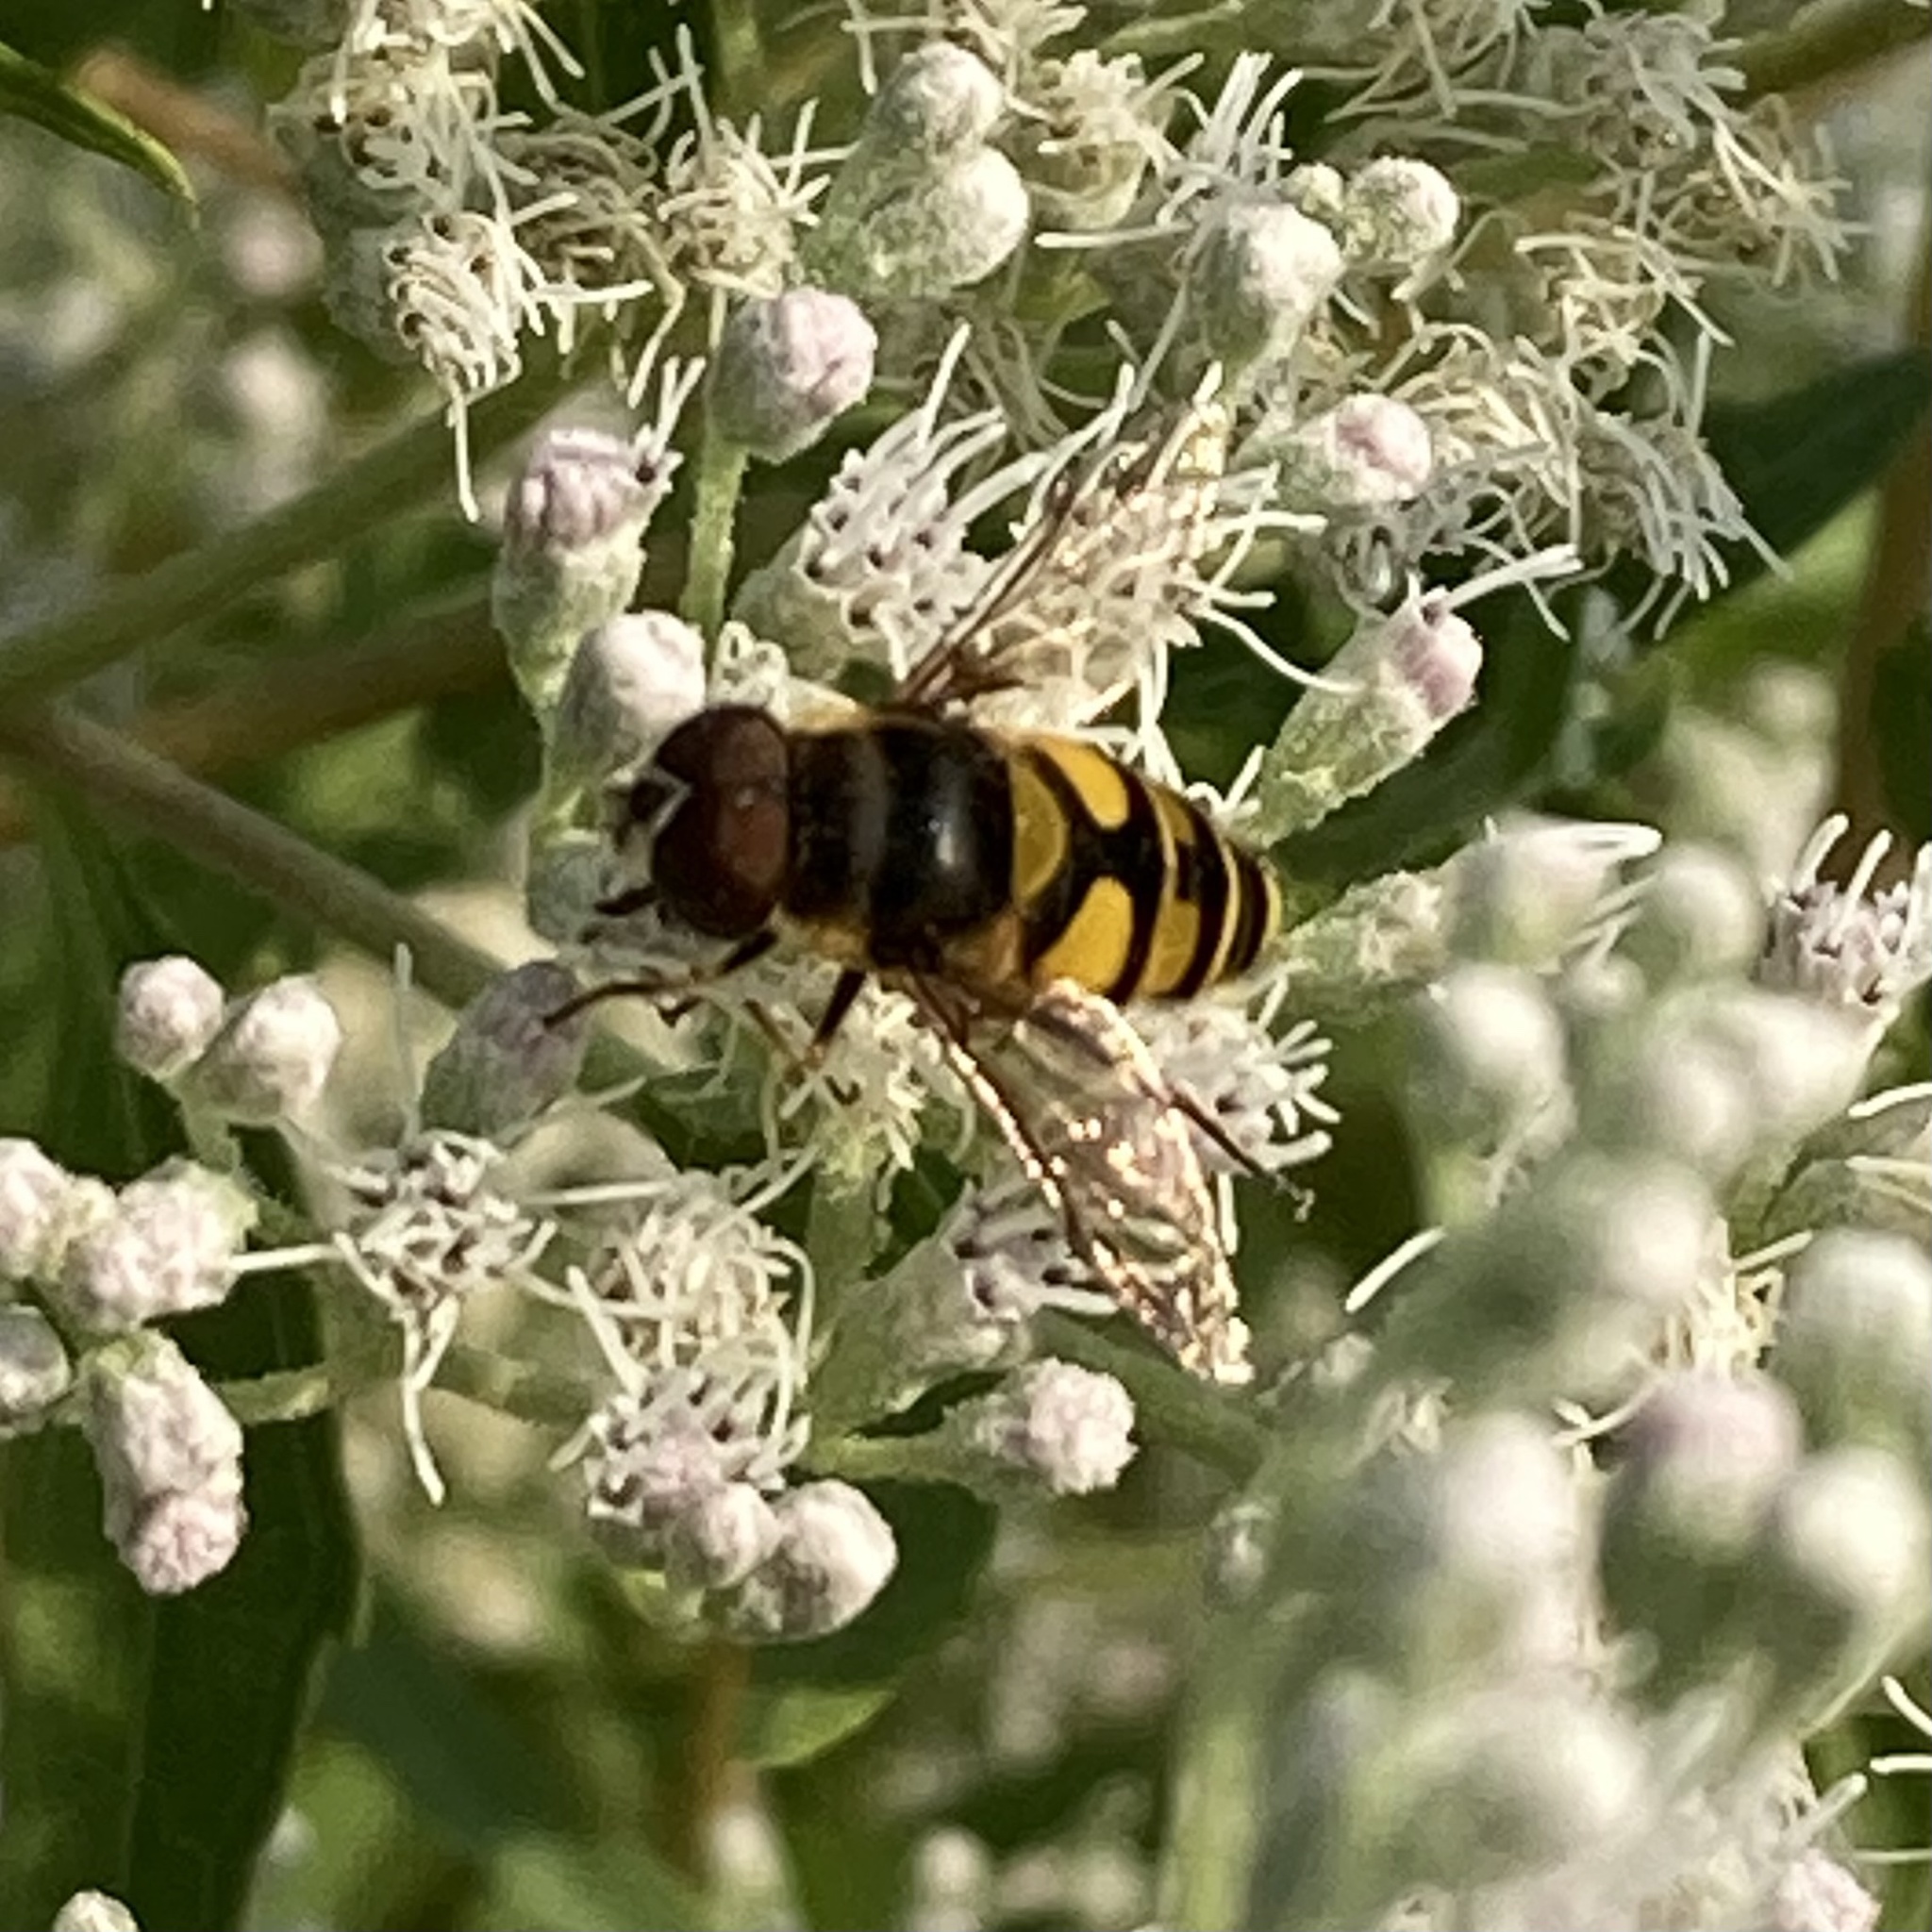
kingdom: Animalia
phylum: Arthropoda
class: Insecta
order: Diptera
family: Syrphidae
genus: Eristalis
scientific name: Eristalis transversa
